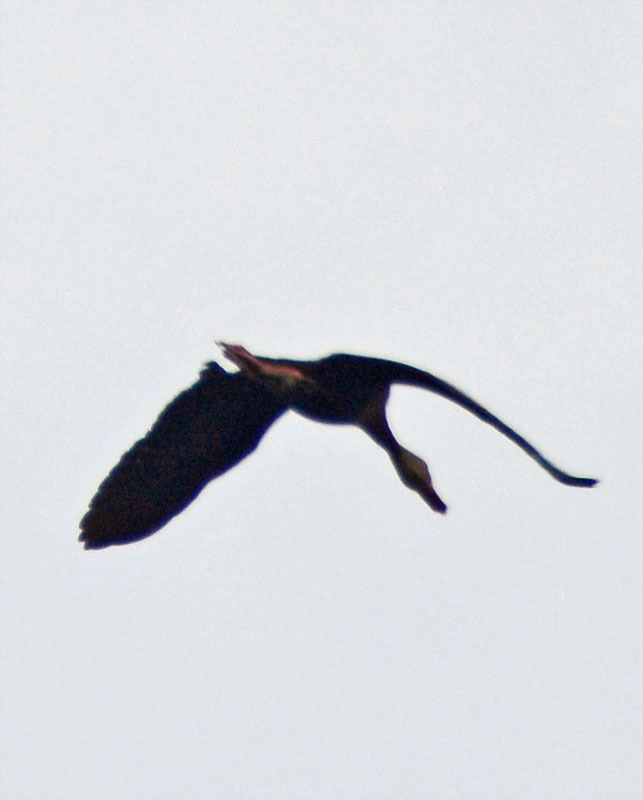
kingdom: Animalia
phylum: Chordata
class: Aves
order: Anseriformes
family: Anatidae
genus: Dendrocygna
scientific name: Dendrocygna autumnalis
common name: Black-bellied whistling duck
